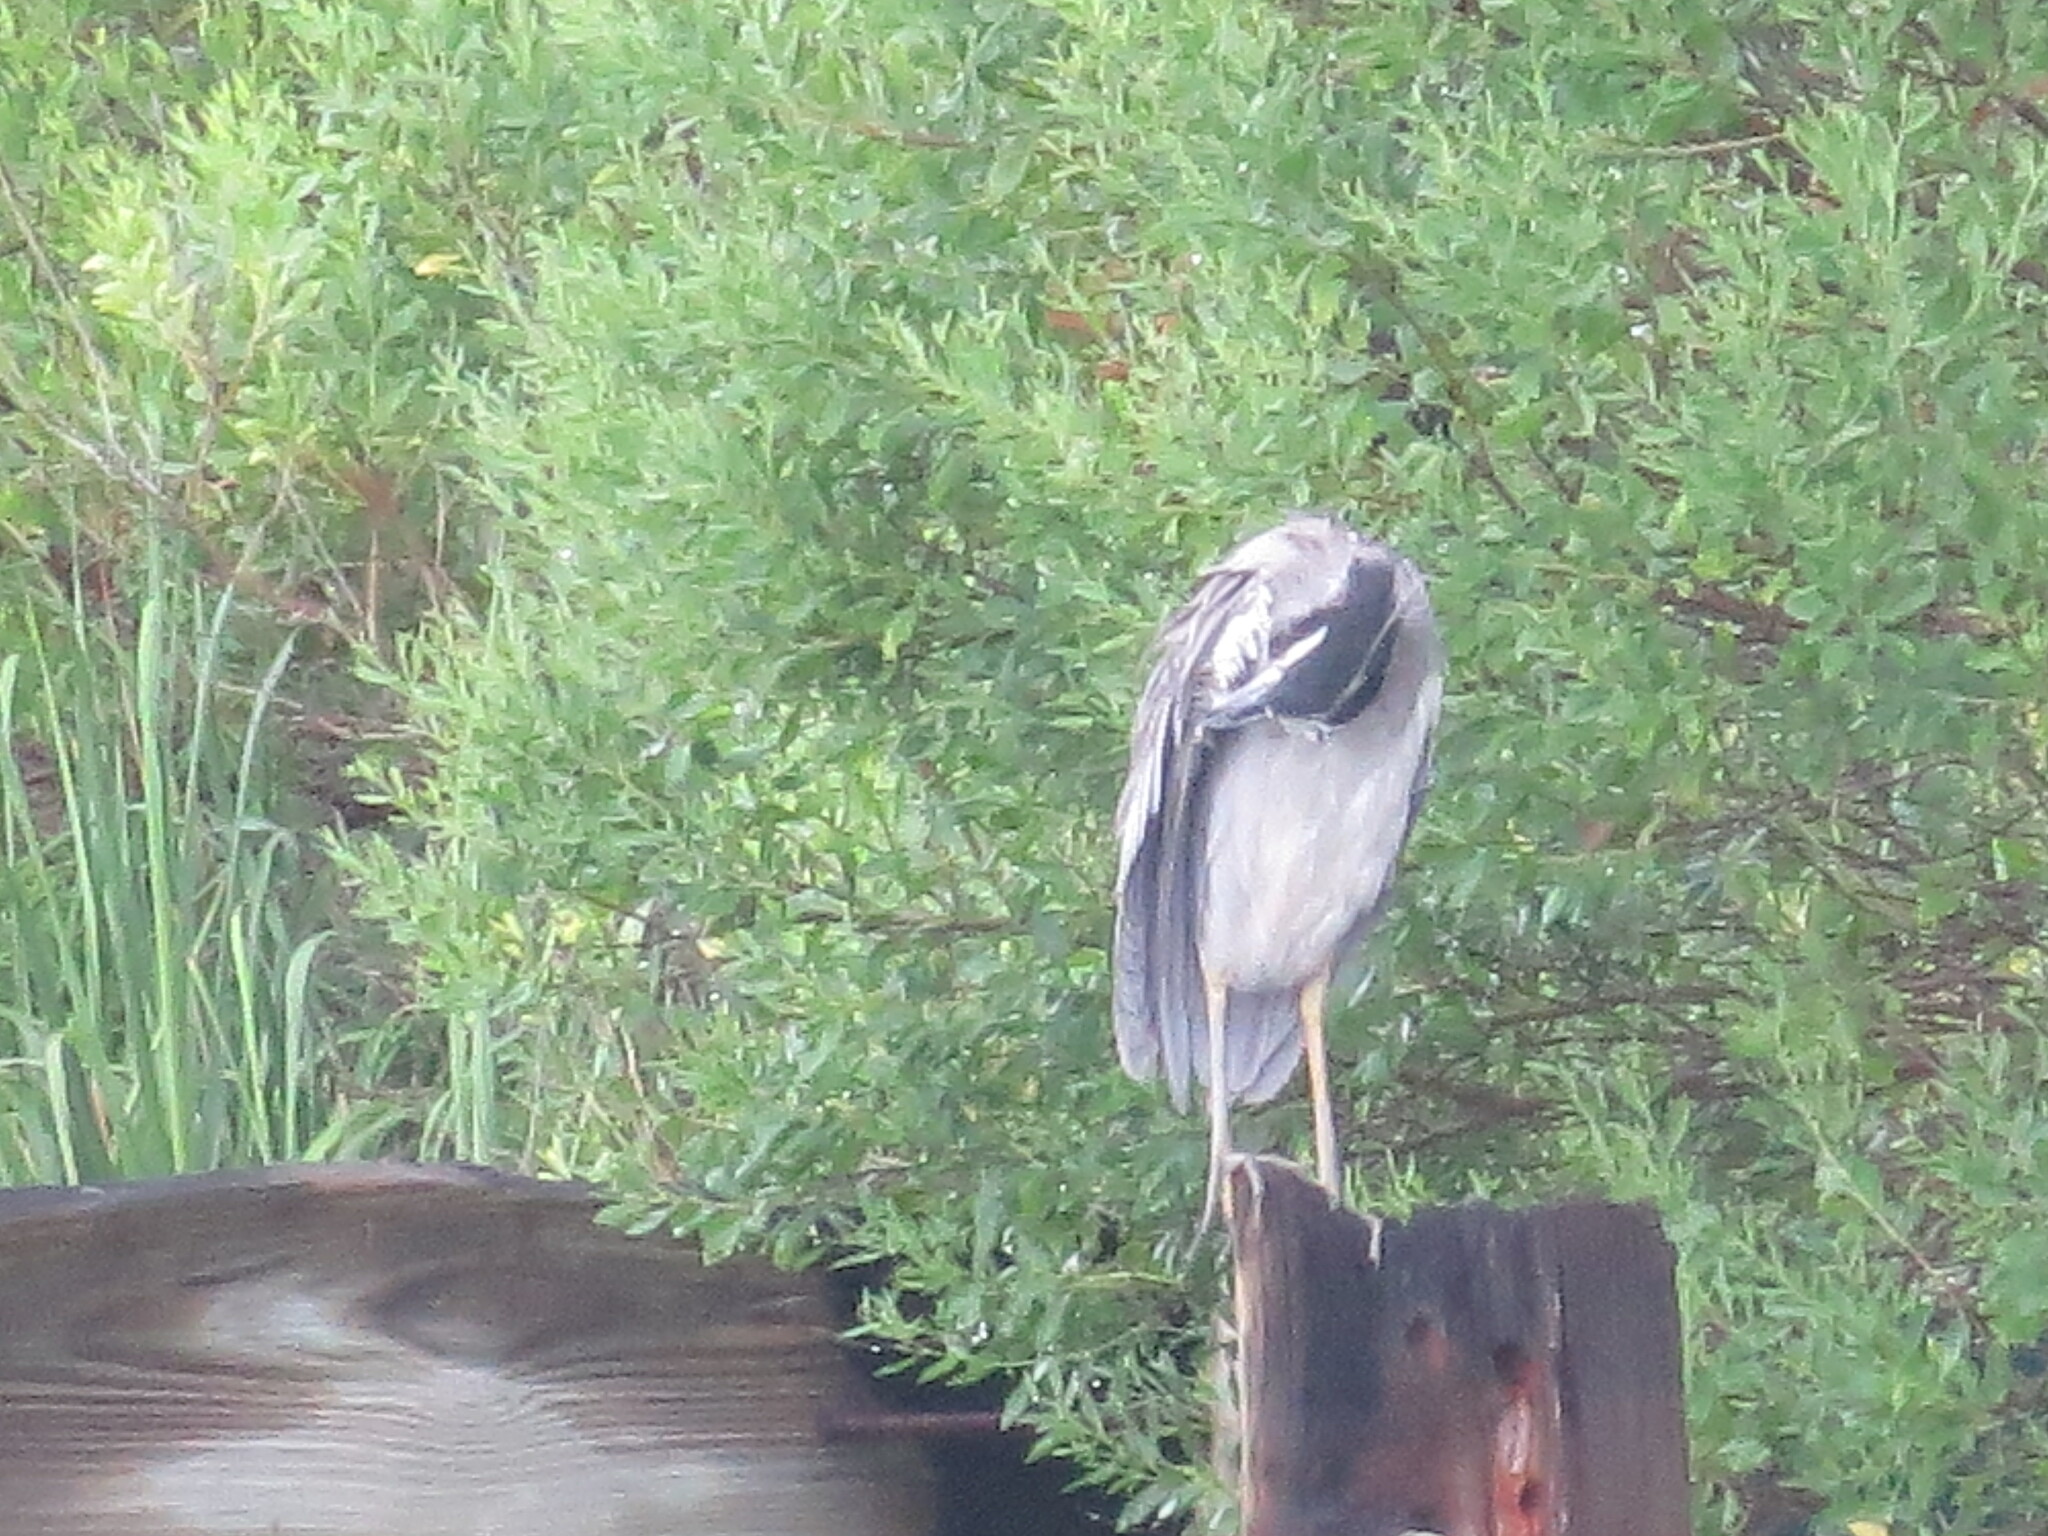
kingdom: Animalia
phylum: Chordata
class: Aves
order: Pelecaniformes
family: Ardeidae
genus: Nyctanassa
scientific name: Nyctanassa violacea
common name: Yellow-crowned night heron
